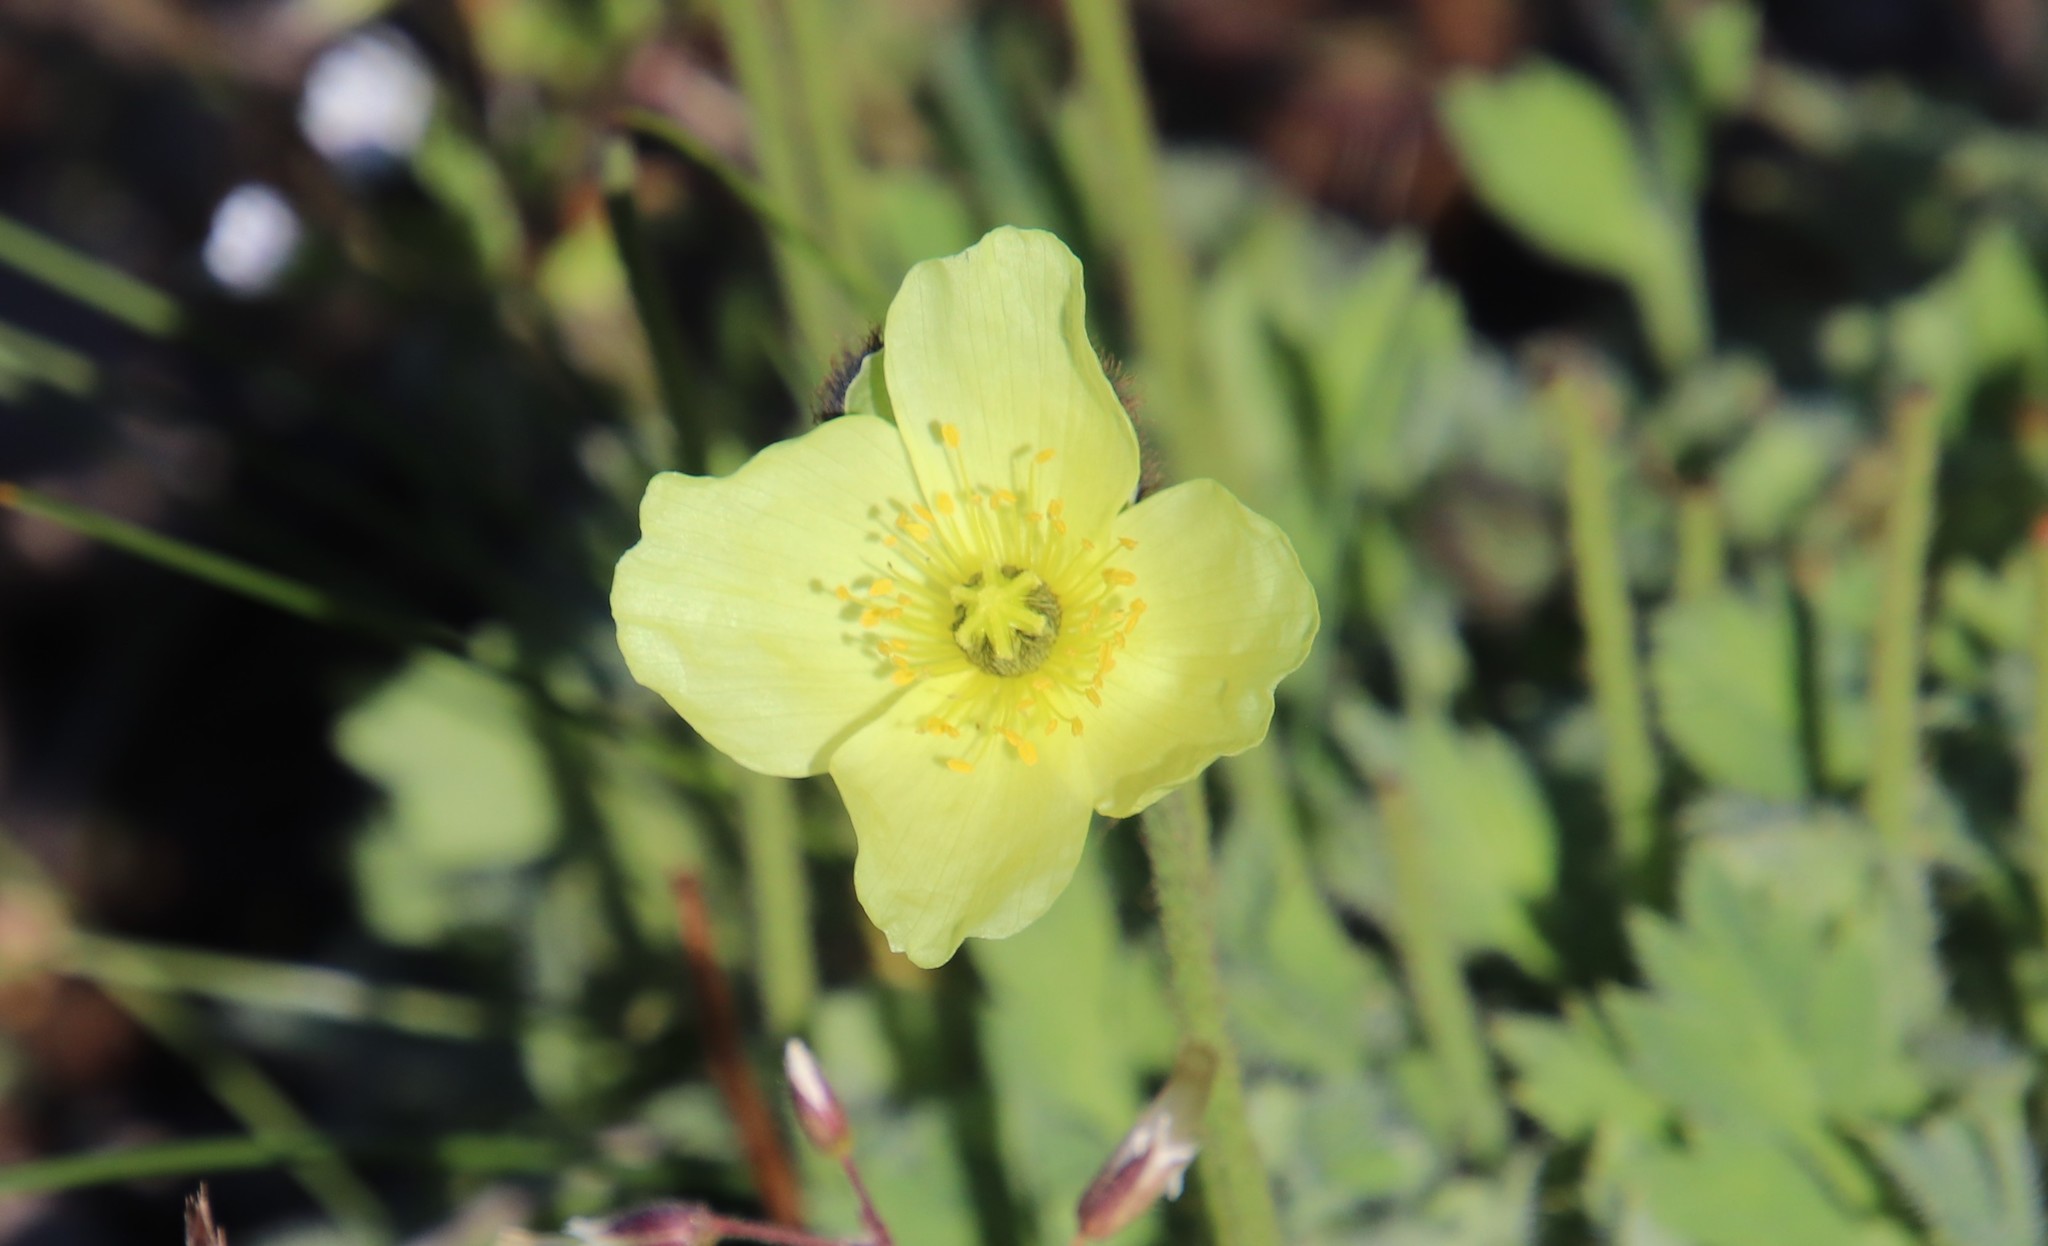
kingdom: Plantae
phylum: Tracheophyta
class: Magnoliopsida
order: Ranunculales
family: Papaveraceae
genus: Papaver
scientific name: Papaver radicatum
